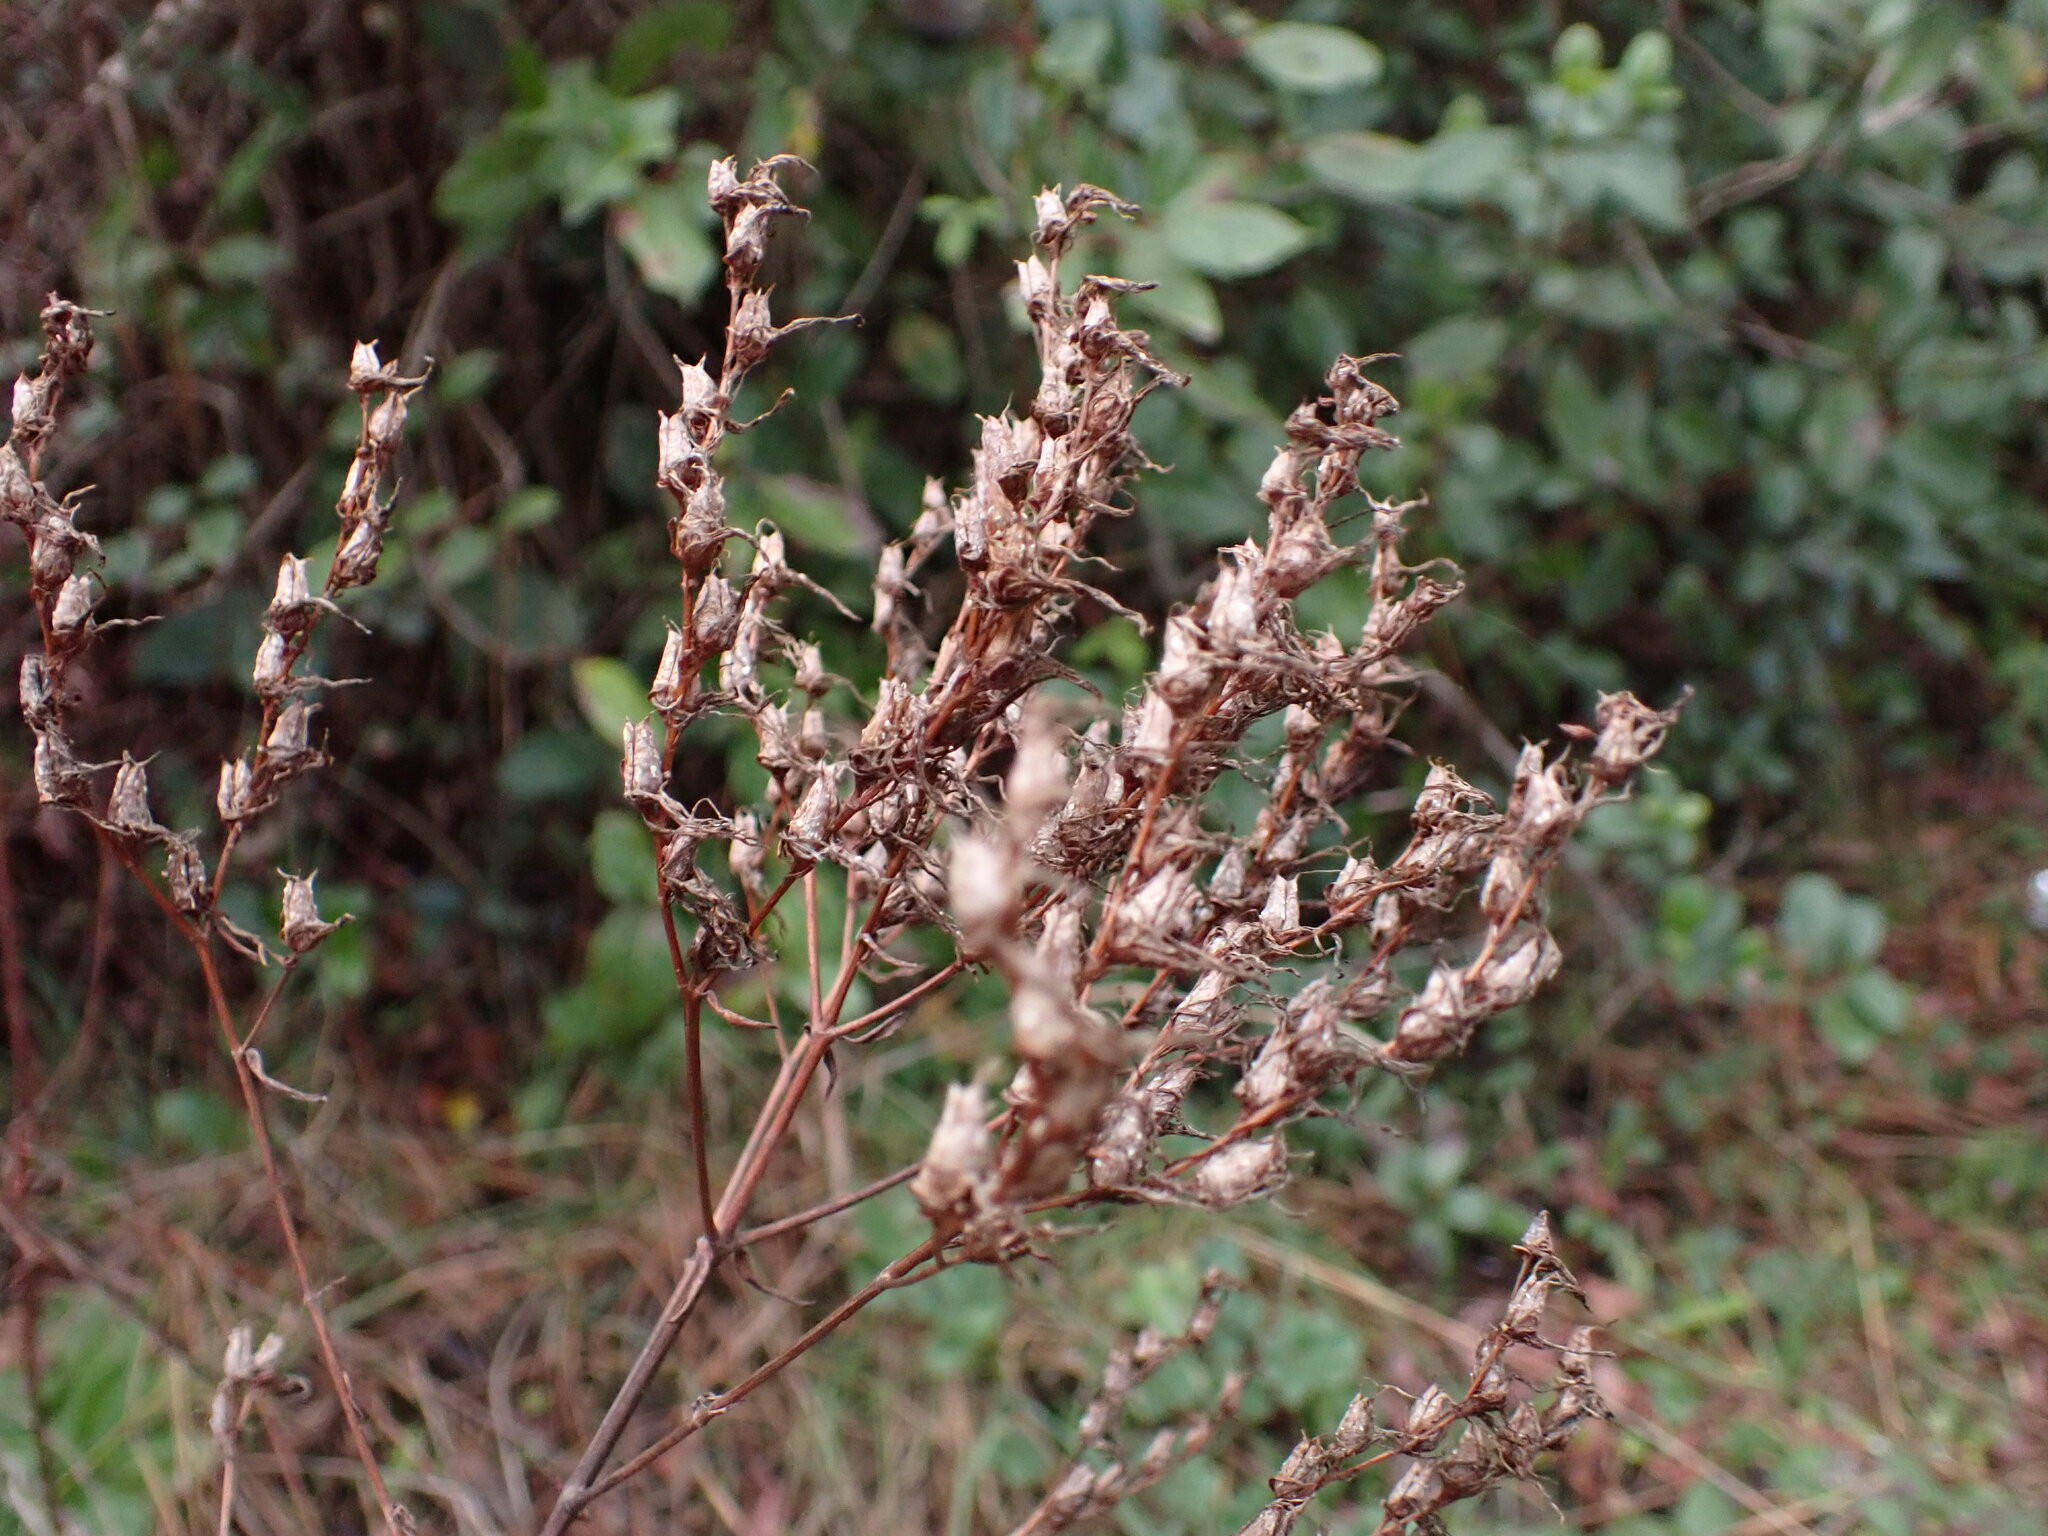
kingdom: Plantae
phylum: Tracheophyta
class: Magnoliopsida
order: Malpighiales
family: Hypericaceae
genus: Hypericum
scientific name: Hypericum perforatum
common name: Common st. johnswort
